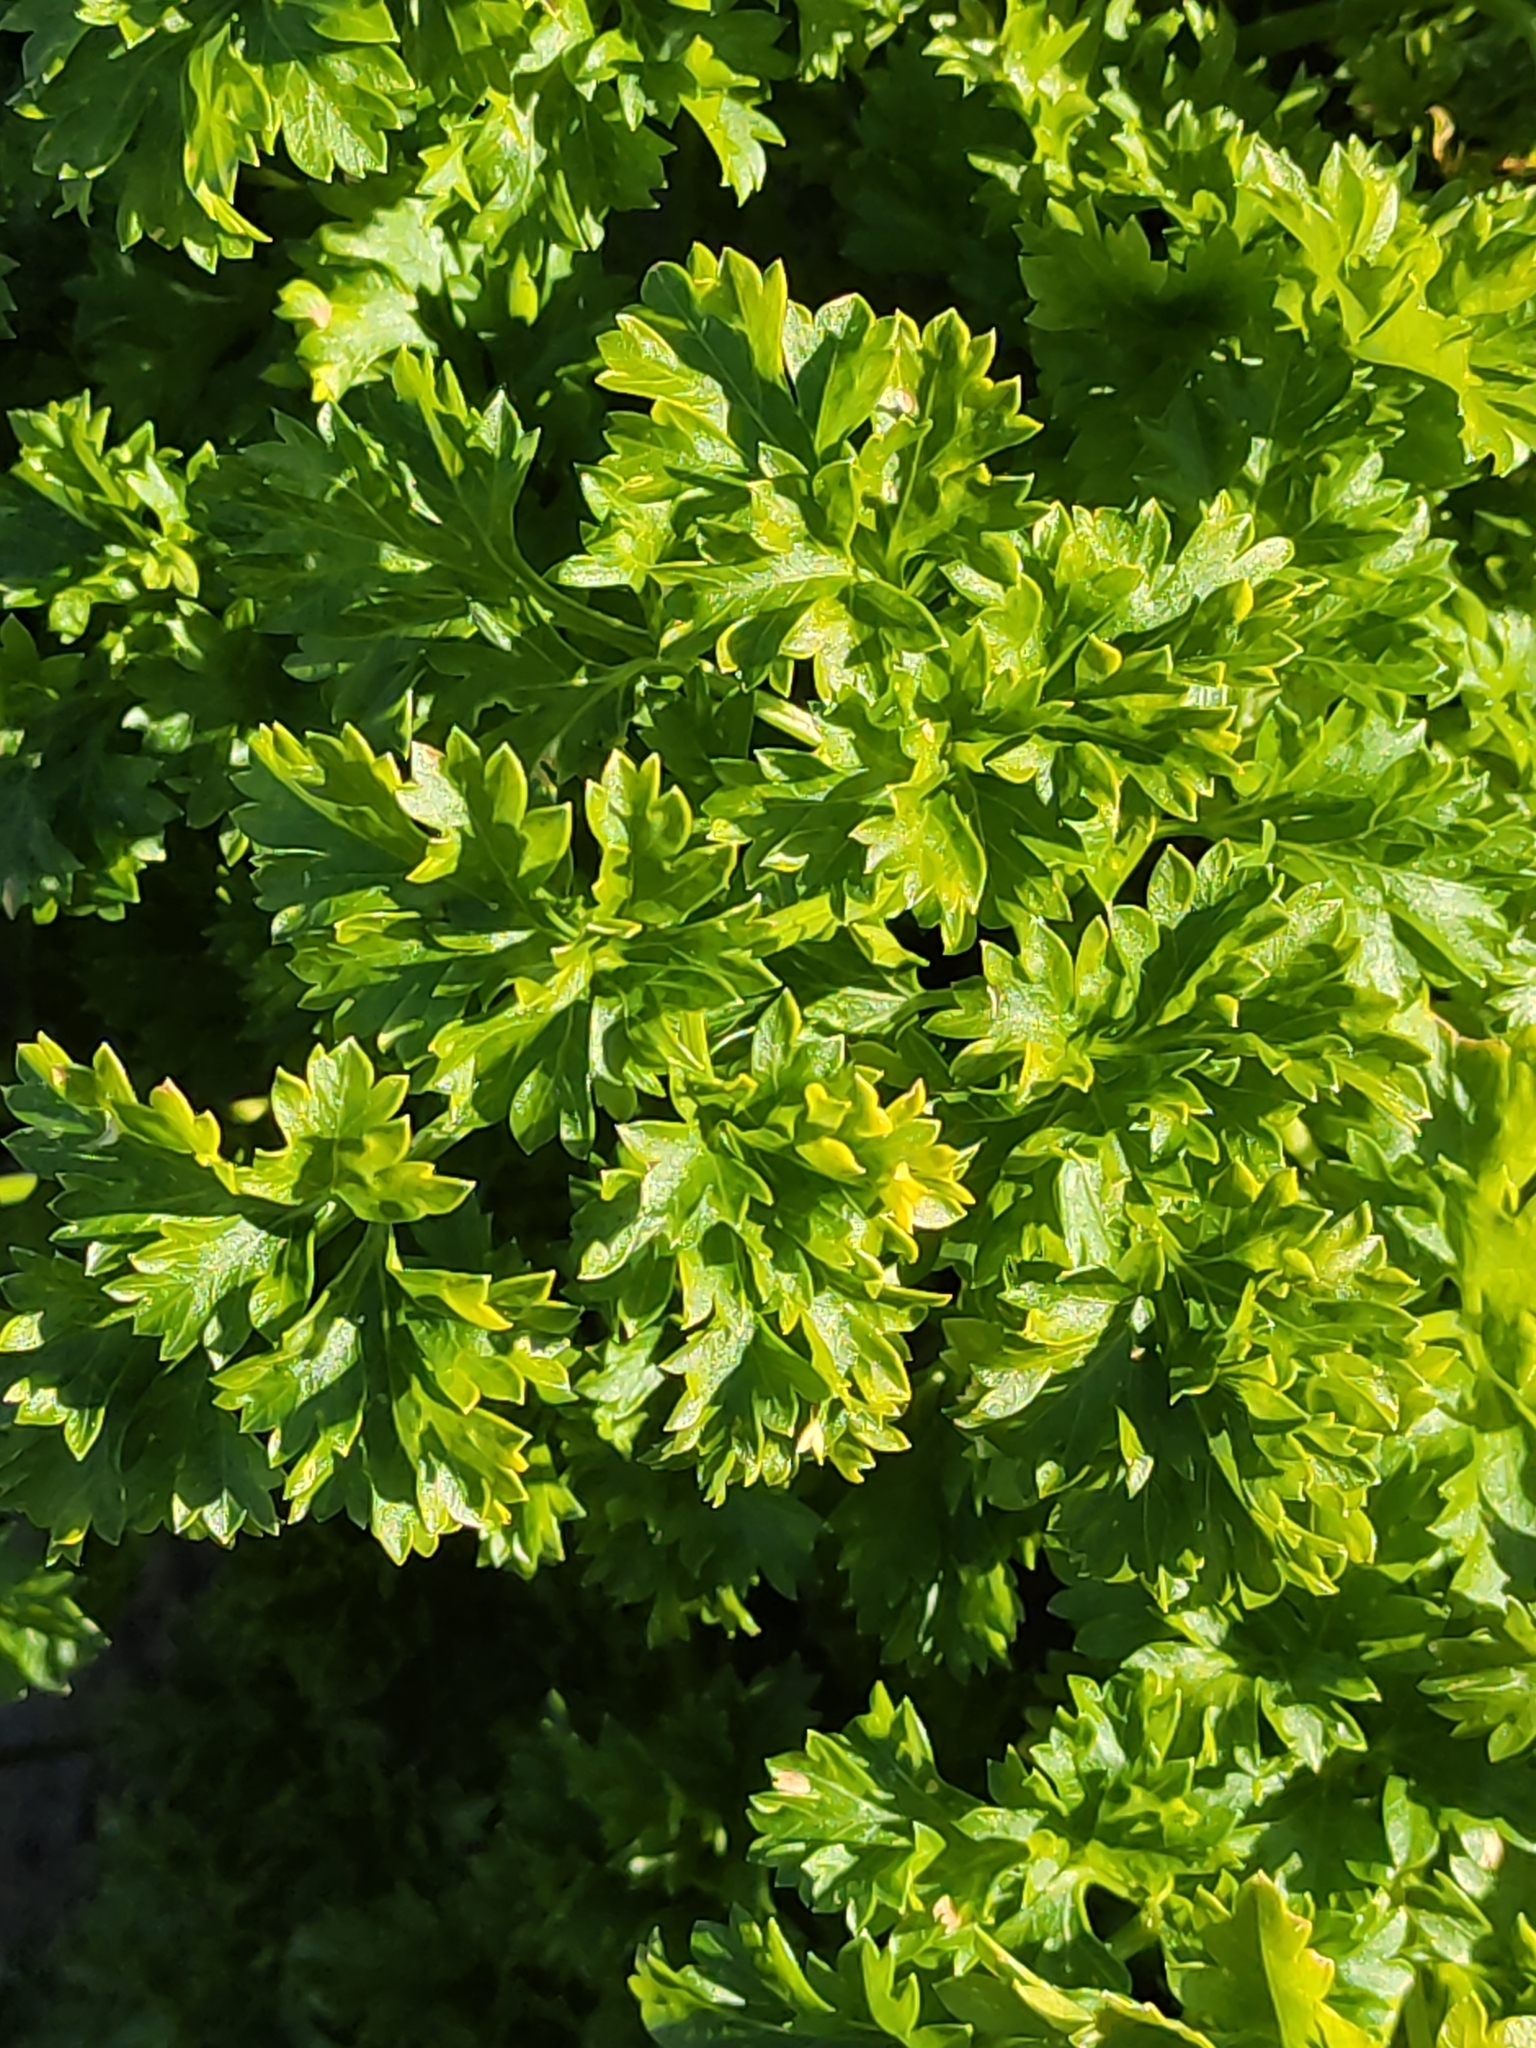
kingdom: Plantae
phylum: Tracheophyta
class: Magnoliopsida
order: Apiales
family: Apiaceae
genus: Petroselinum
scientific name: Petroselinum crispum
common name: Parsley
